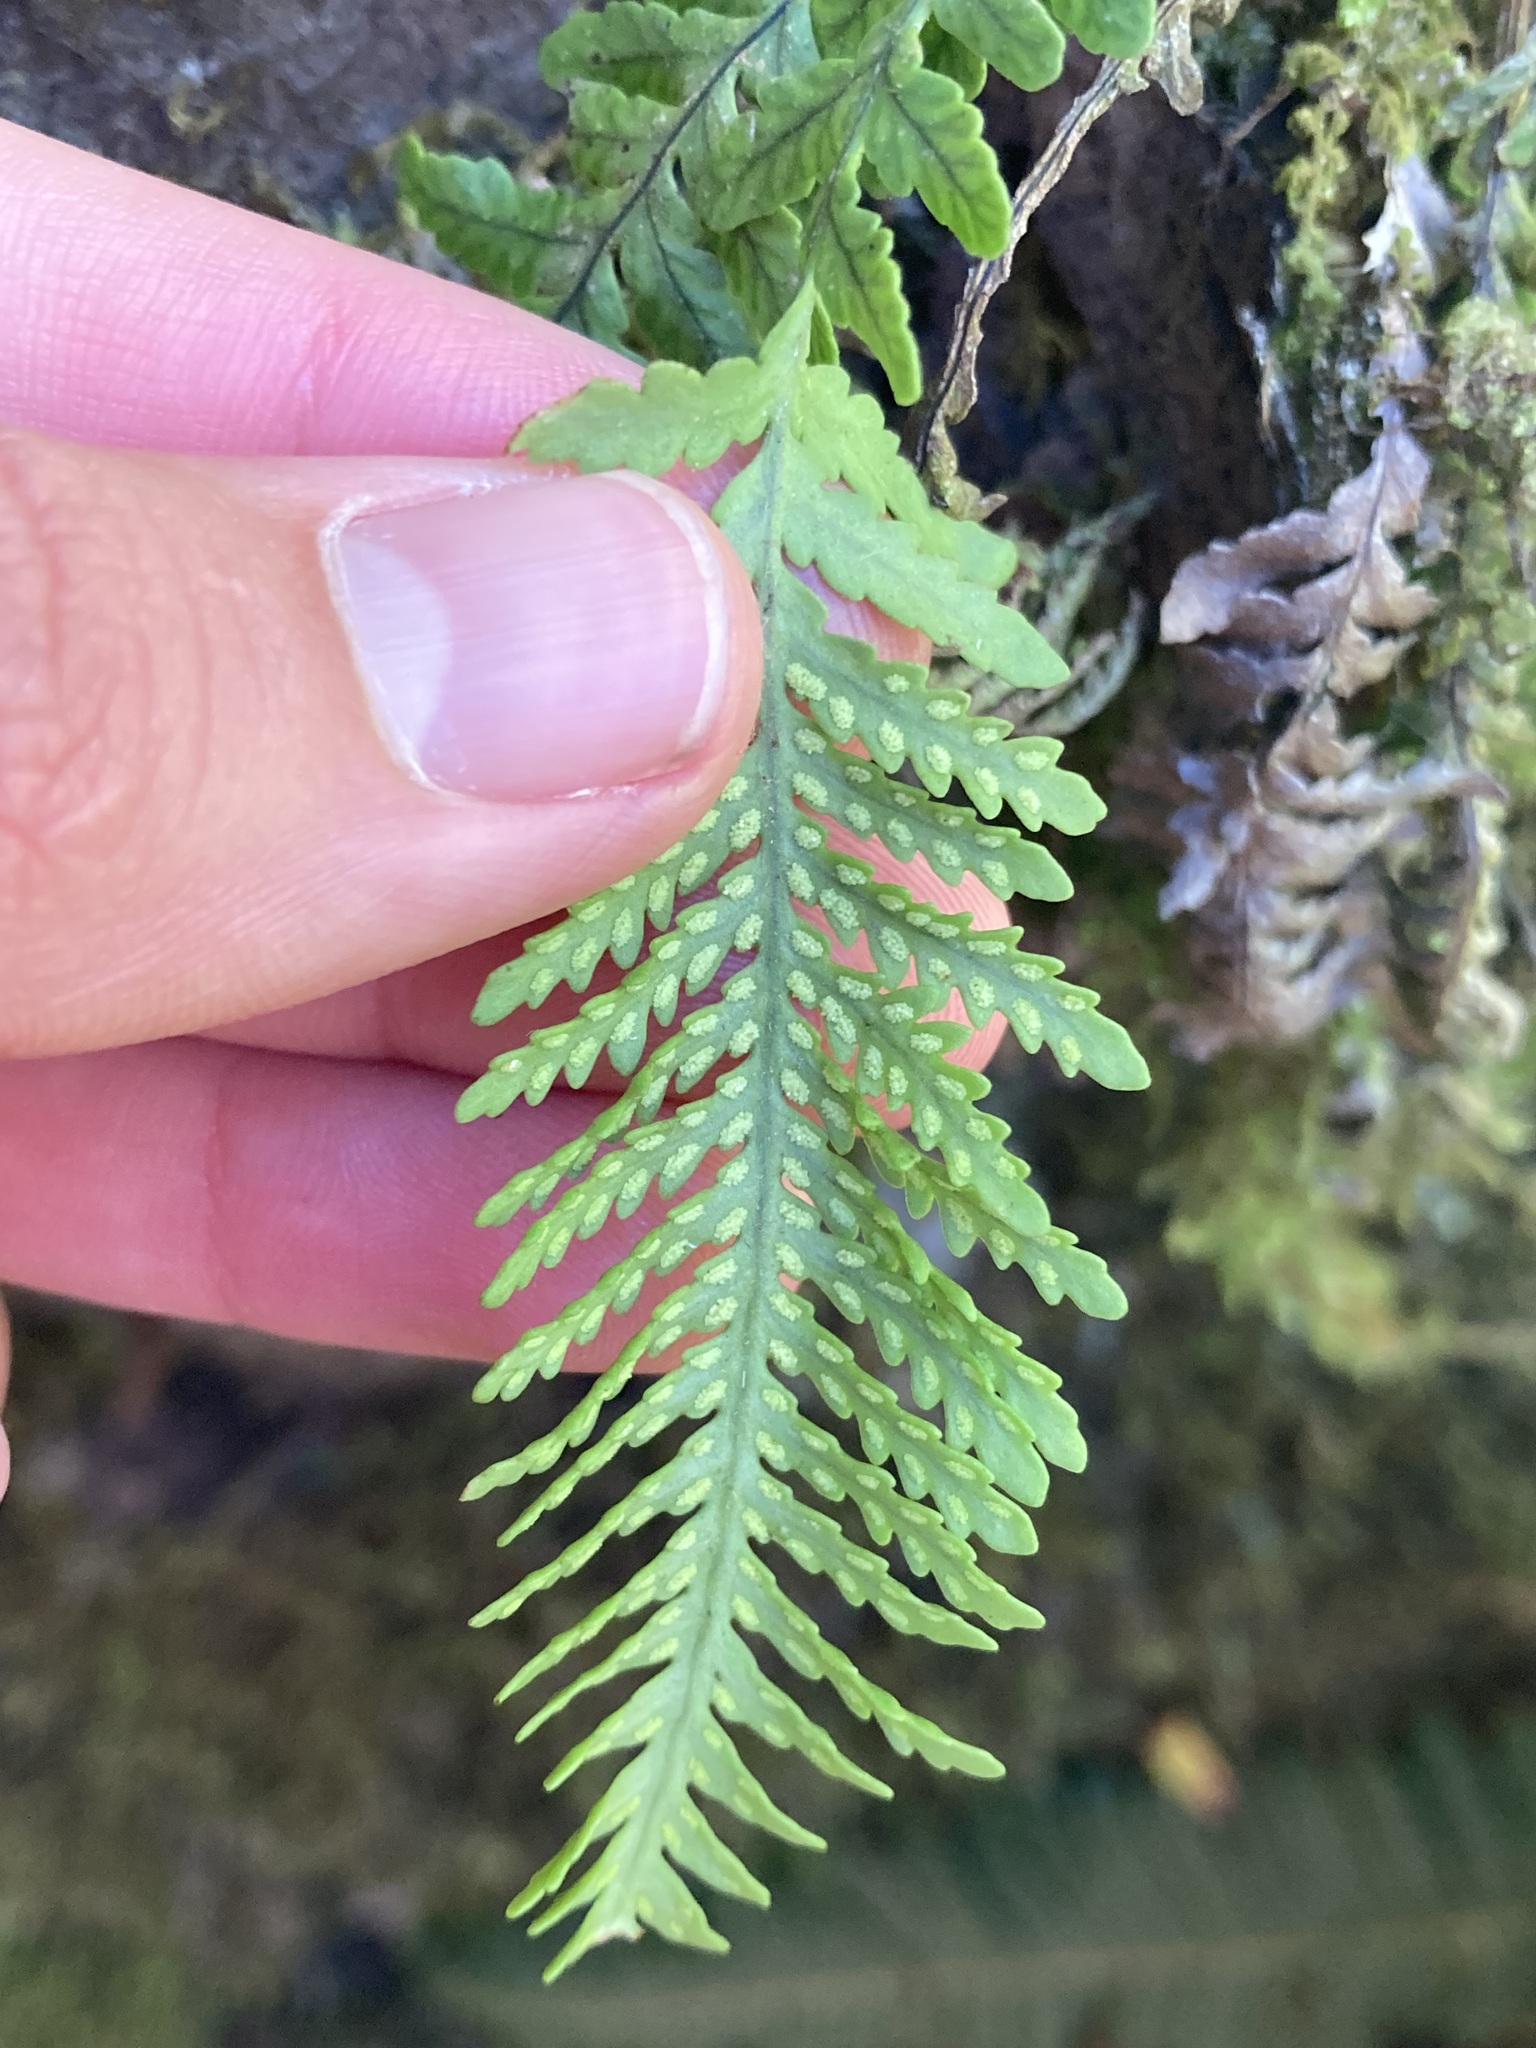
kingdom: Plantae
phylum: Tracheophyta
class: Polypodiopsida
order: Polypodiales
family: Polypodiaceae
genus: Notogrammitis
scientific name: Notogrammitis heterophylla
